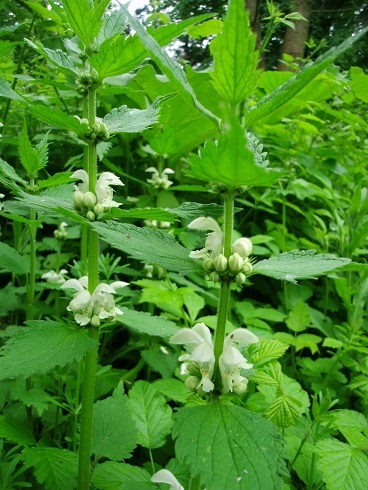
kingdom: Plantae
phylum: Tracheophyta
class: Magnoliopsida
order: Lamiales
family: Lamiaceae
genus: Lamium
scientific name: Lamium album
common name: White dead-nettle
